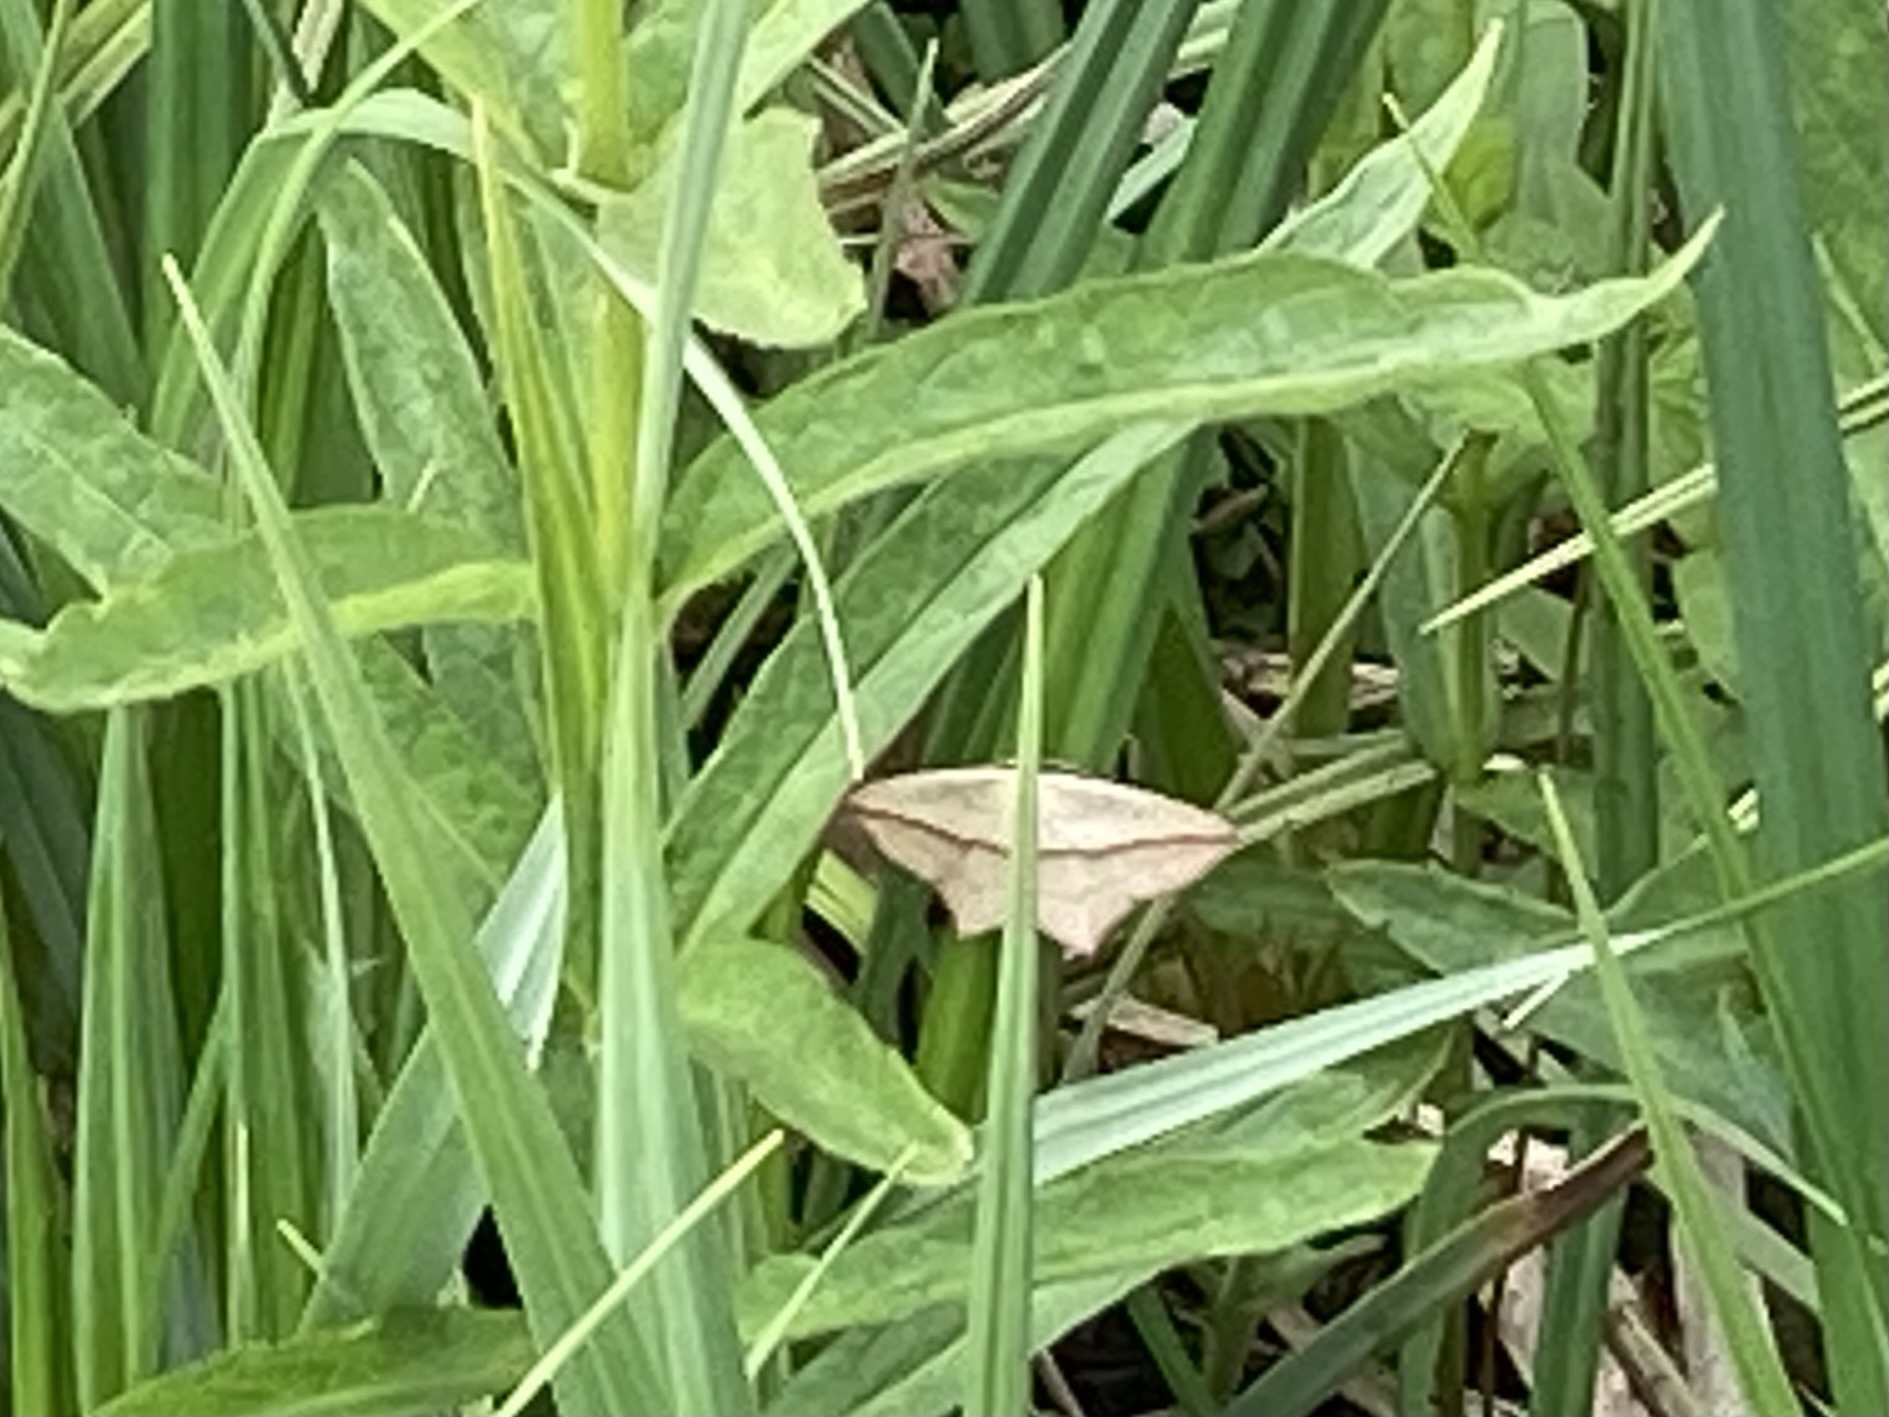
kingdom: Animalia
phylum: Arthropoda
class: Insecta
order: Lepidoptera
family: Geometridae
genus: Timandra
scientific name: Timandra comae
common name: Blood-vein
